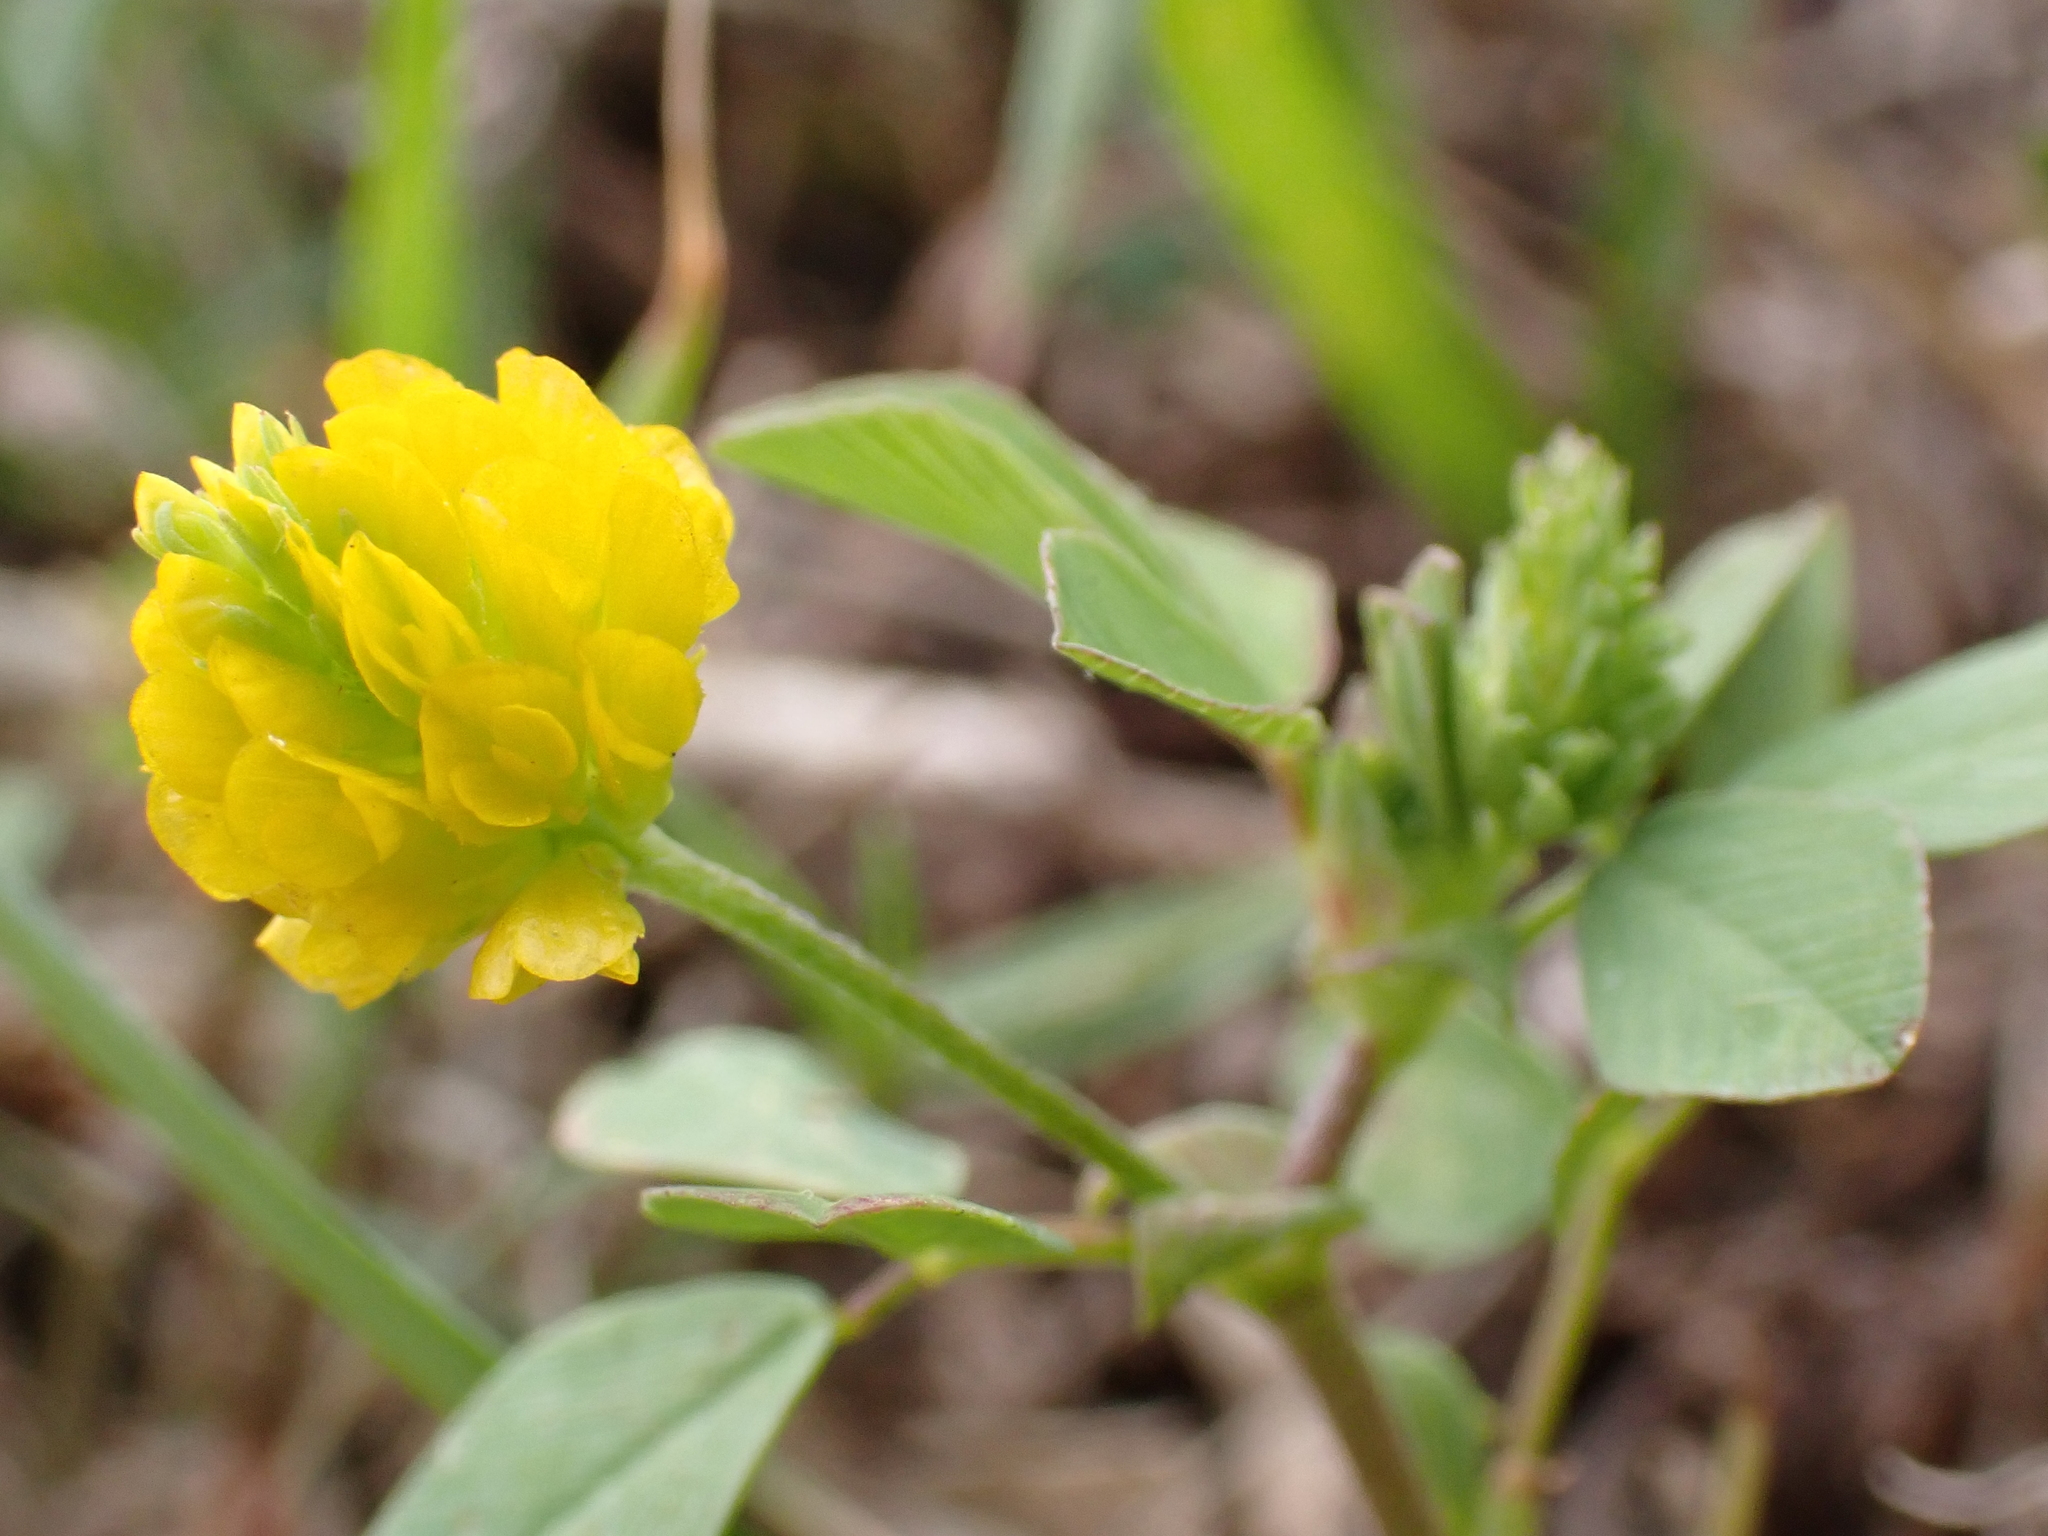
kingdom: Plantae
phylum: Tracheophyta
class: Magnoliopsida
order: Fabales
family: Fabaceae
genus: Trifolium
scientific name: Trifolium campestre
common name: Field clover
